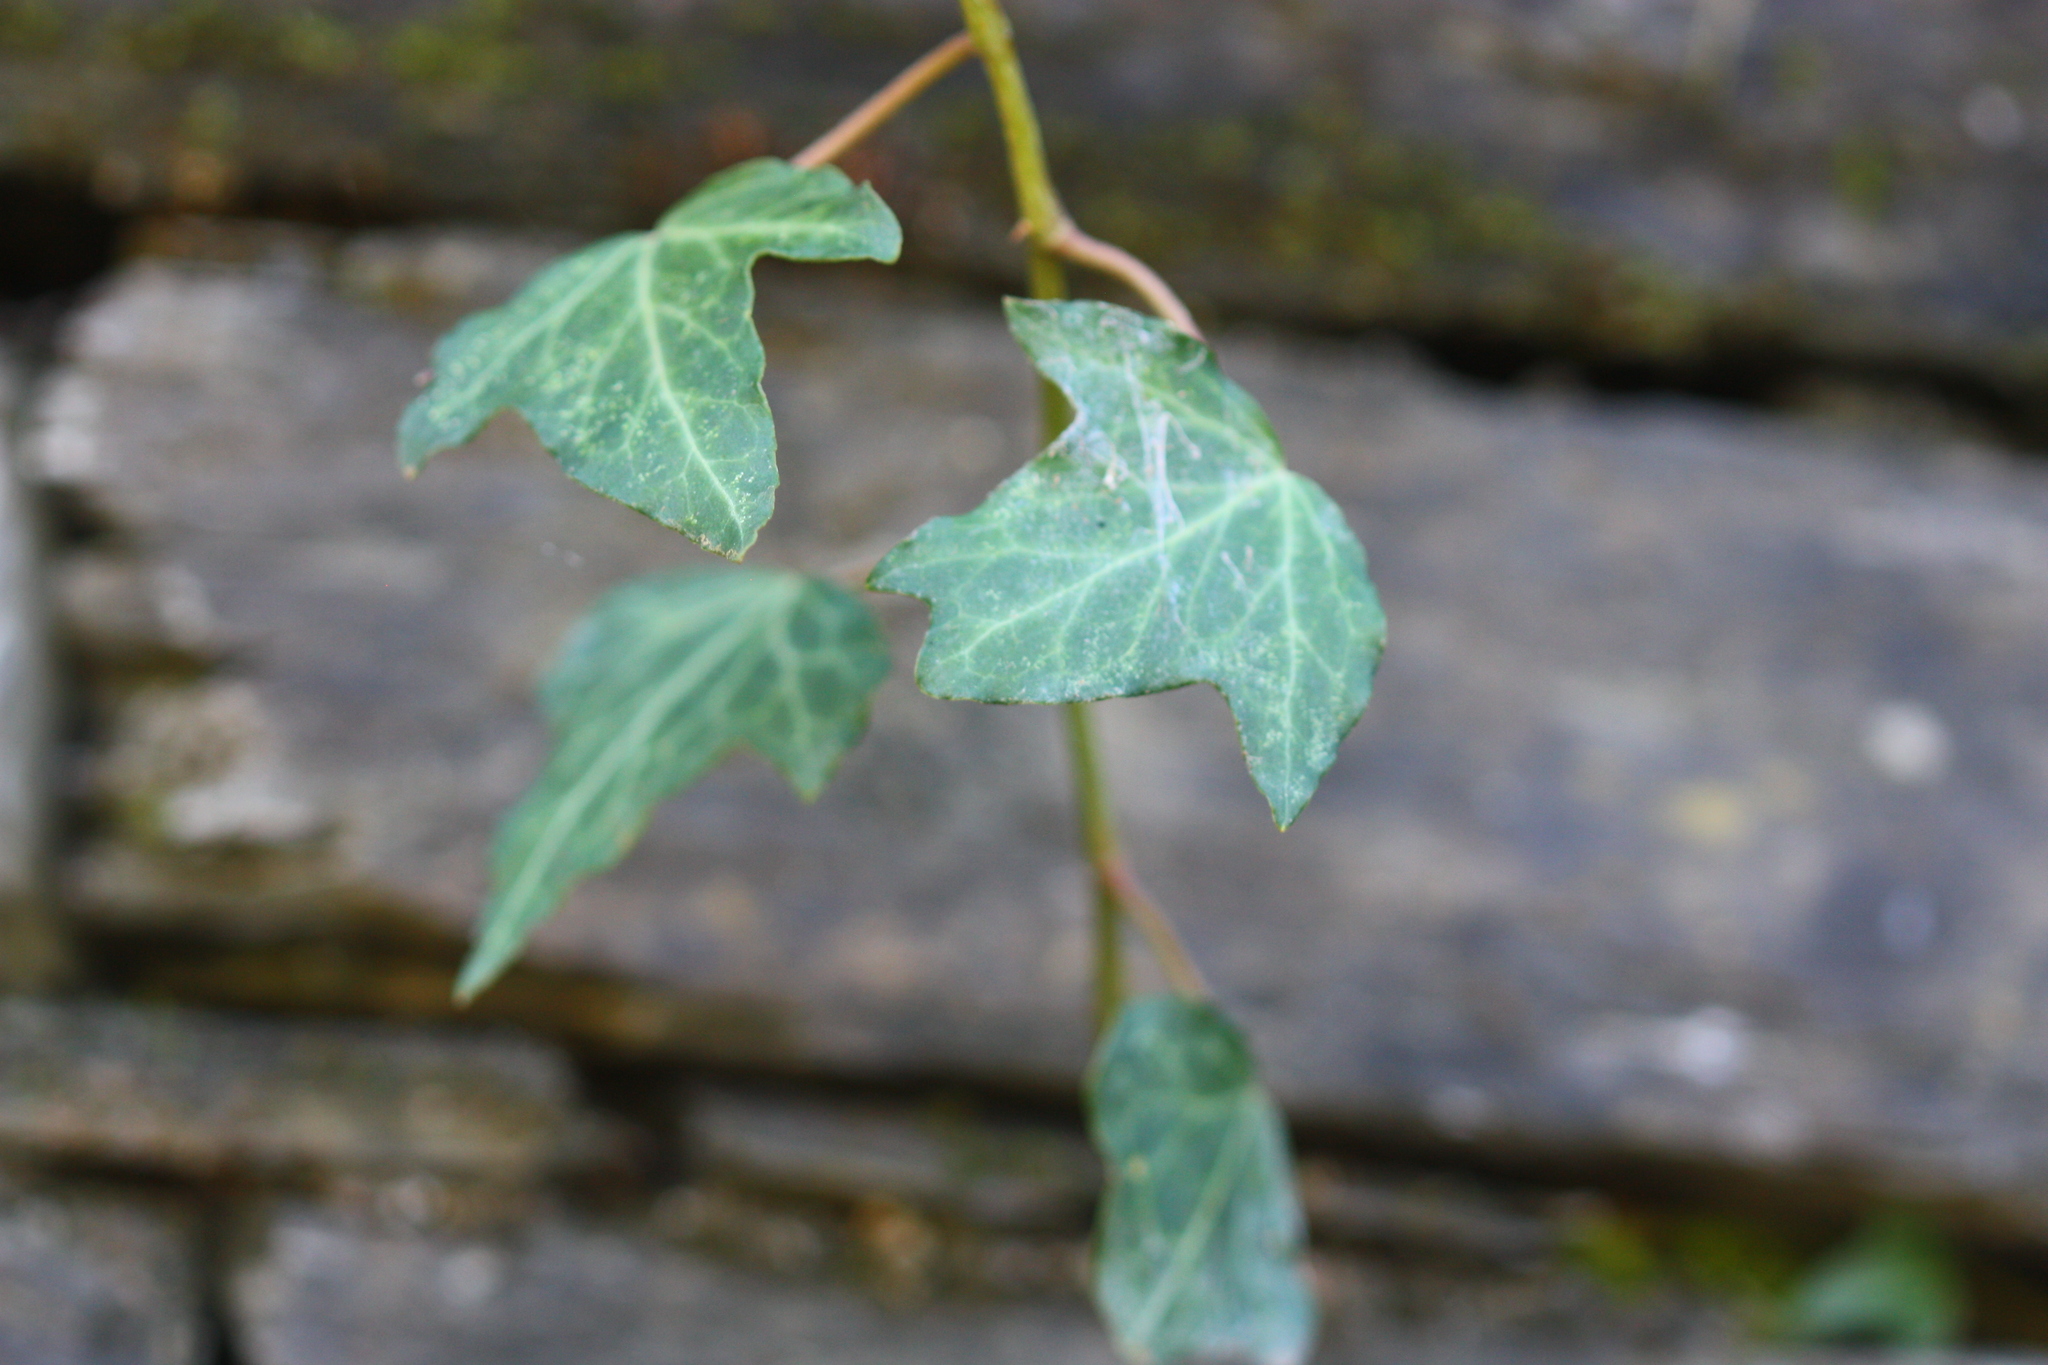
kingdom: Plantae
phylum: Tracheophyta
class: Magnoliopsida
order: Apiales
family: Araliaceae
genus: Hedera
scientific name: Hedera helix
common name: Ivy
